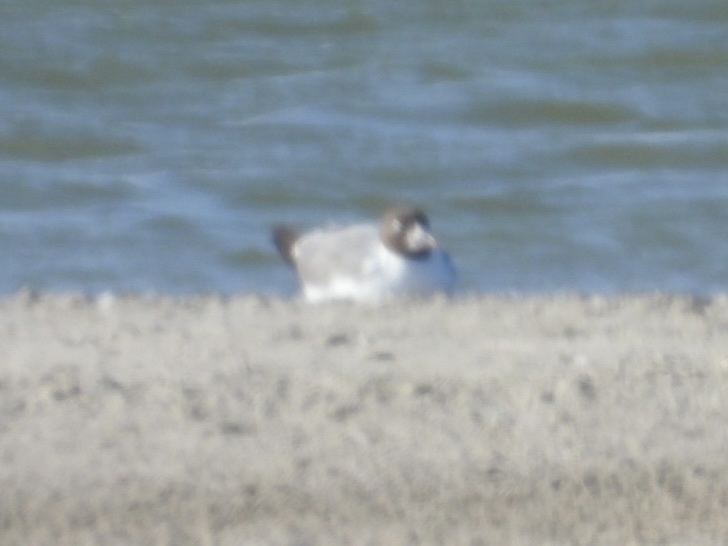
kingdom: Animalia
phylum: Chordata
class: Aves
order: Charadriiformes
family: Laridae
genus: Leucophaeus
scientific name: Leucophaeus atricilla
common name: Laughing gull
